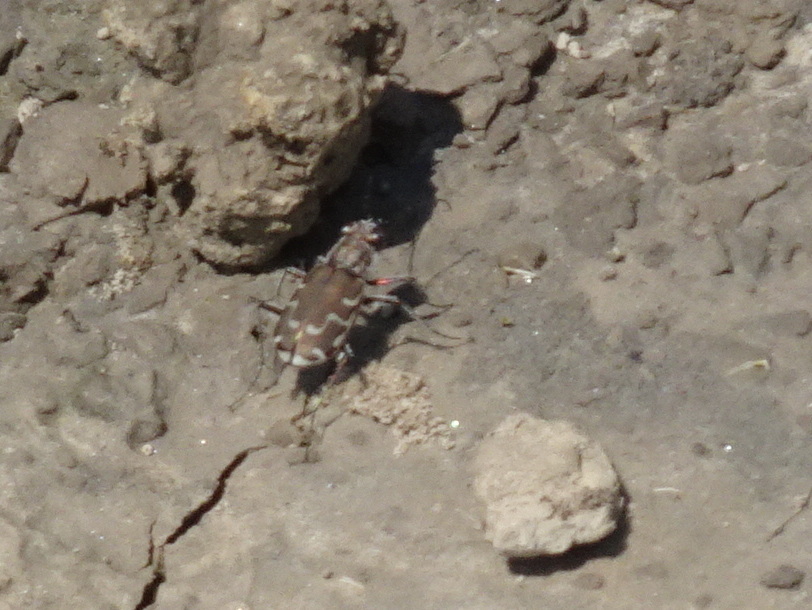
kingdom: Animalia
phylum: Arthropoda
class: Insecta
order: Coleoptera
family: Carabidae
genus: Cicindela
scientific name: Cicindela repanda
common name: Bronzed tiger beetle
